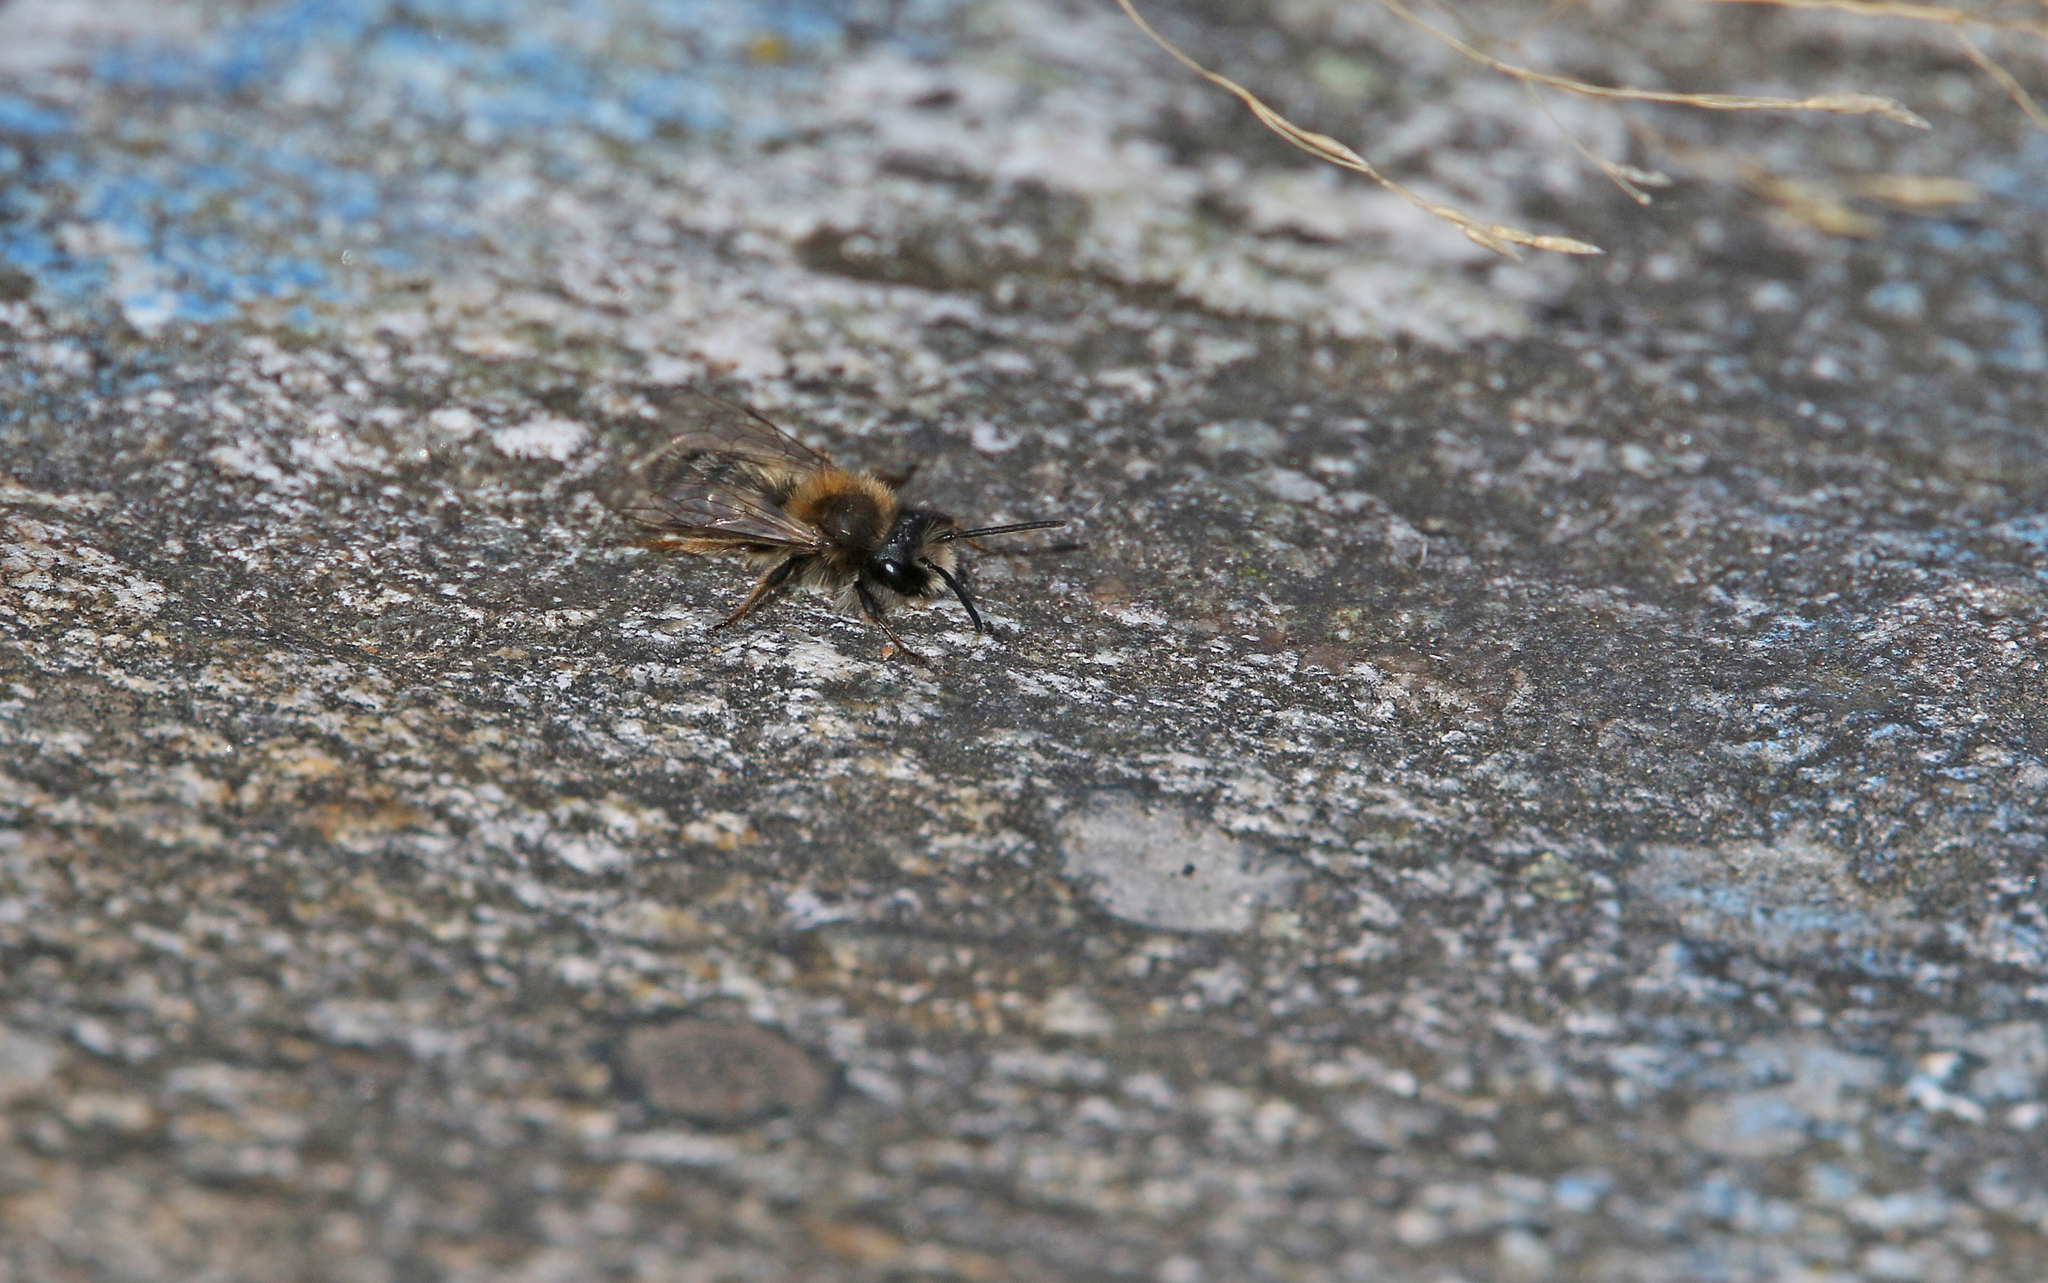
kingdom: Animalia
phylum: Arthropoda
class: Insecta
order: Hymenoptera
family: Andrenidae
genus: Andrena
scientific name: Andrena clarkella
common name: Clarke's mining bee
